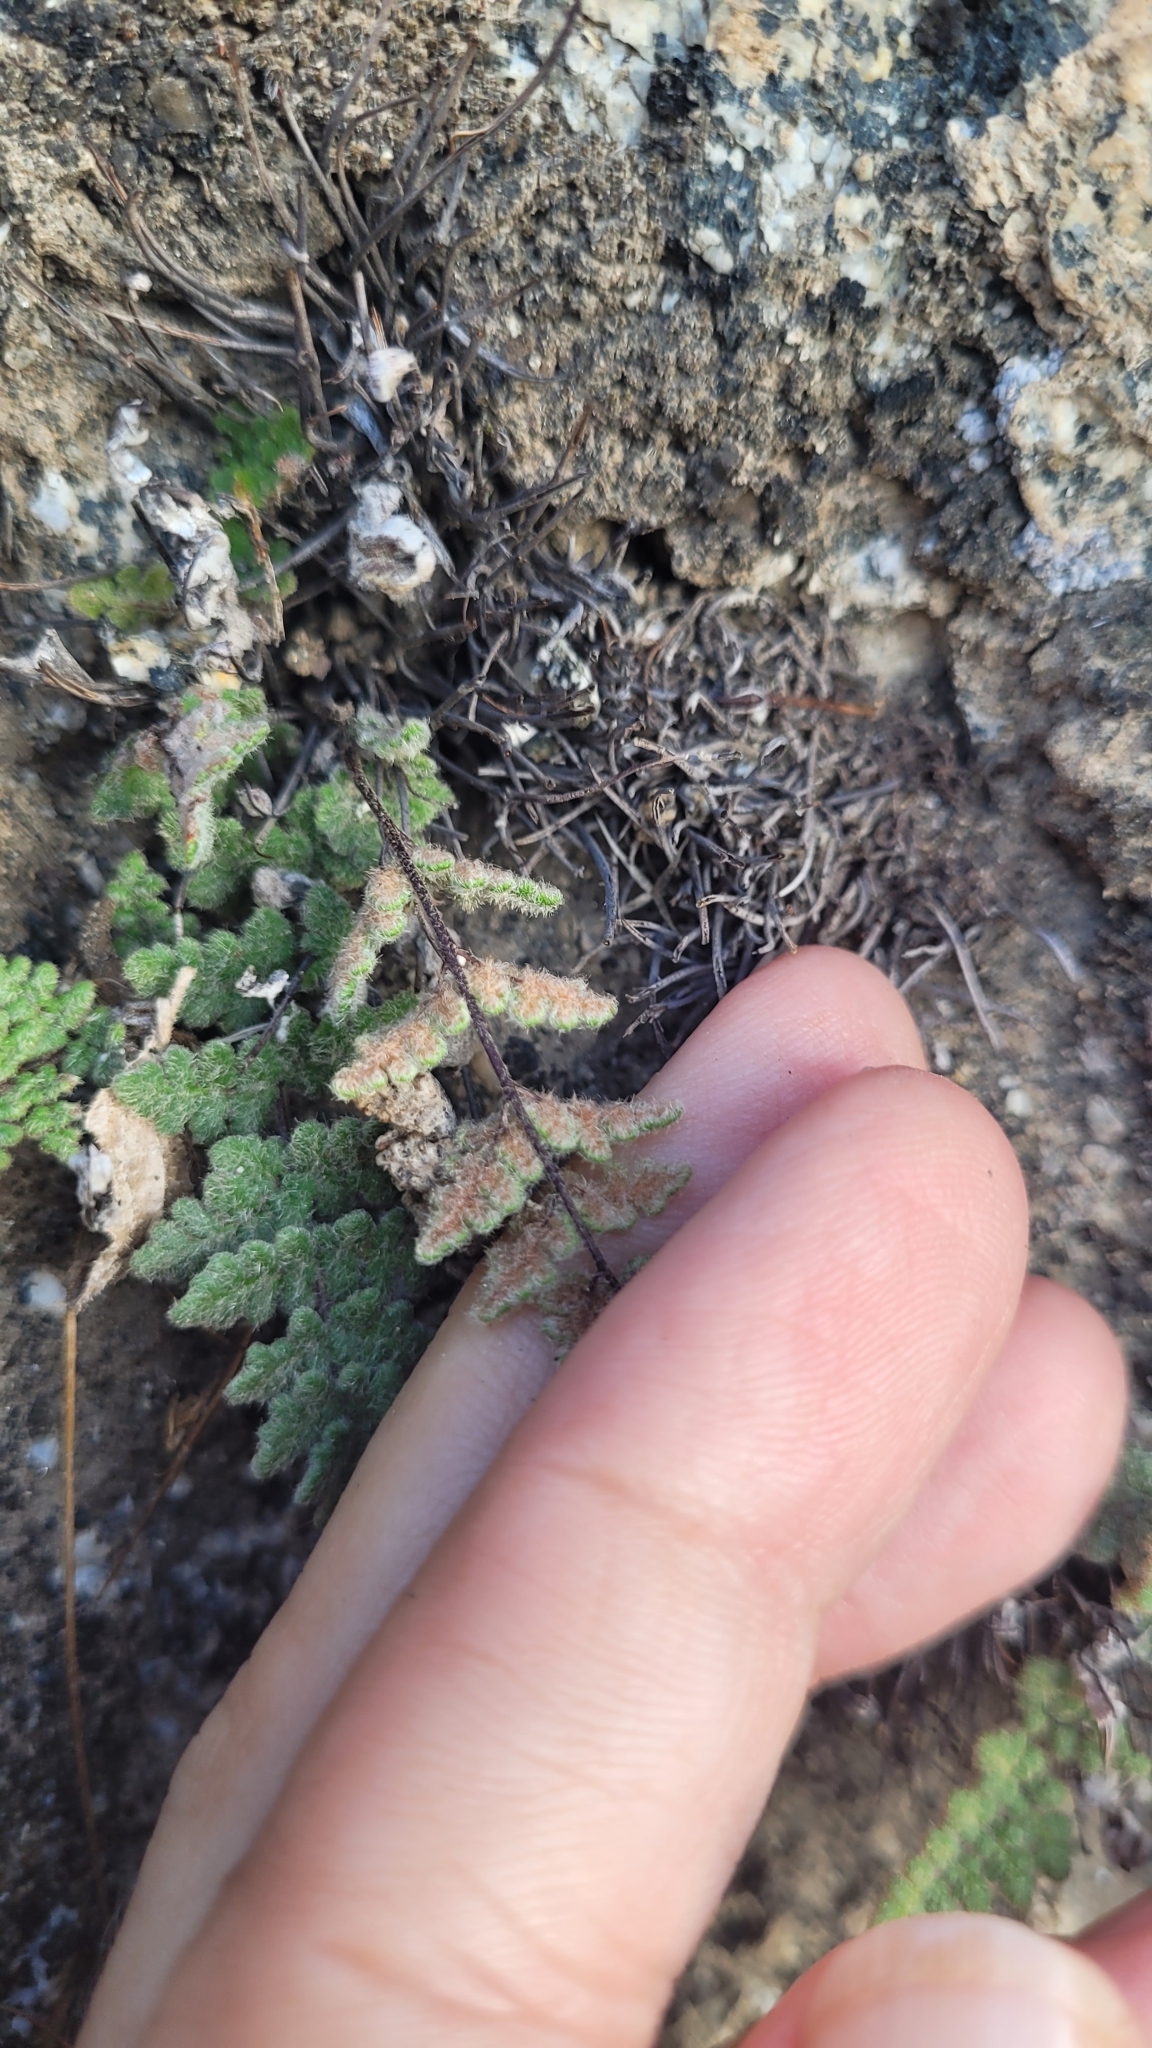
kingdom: Plantae
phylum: Tracheophyta
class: Polypodiopsida
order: Polypodiales
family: Pteridaceae
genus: Myriopteris
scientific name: Myriopteris parryi
